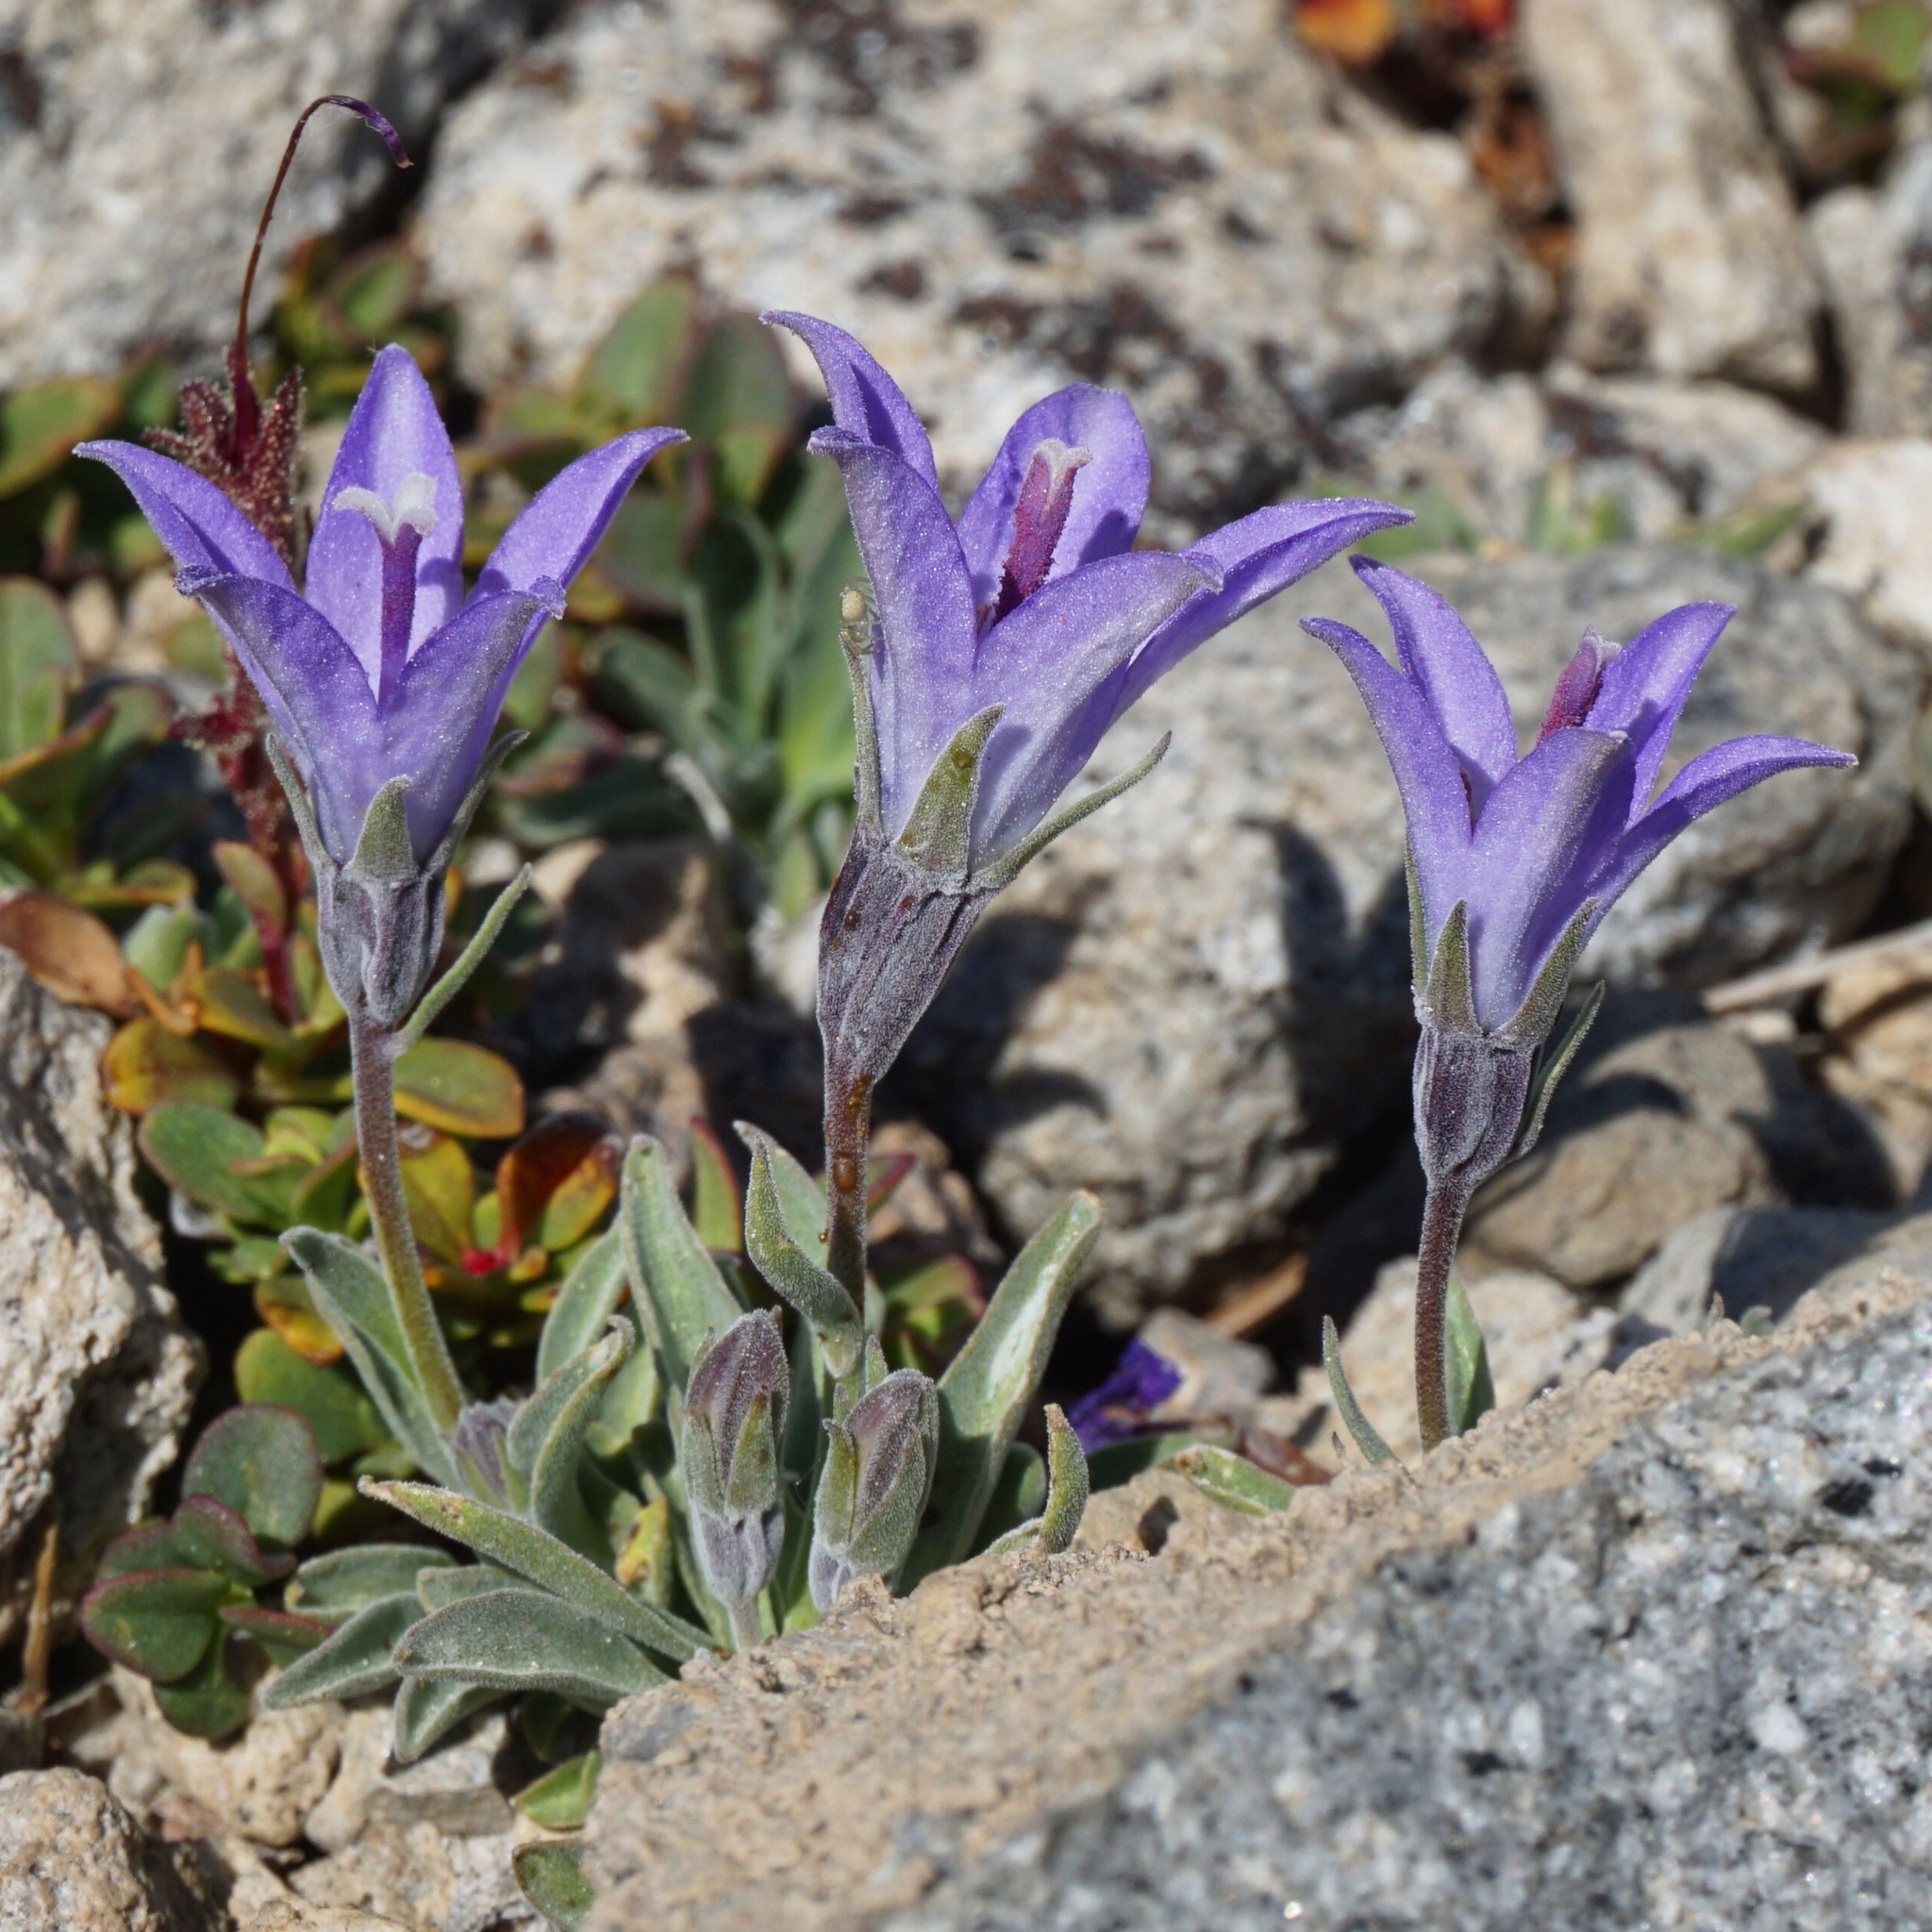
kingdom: Plantae
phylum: Tracheophyta
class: Magnoliopsida
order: Asterales
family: Campanulaceae
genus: Campanula
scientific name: Campanula scabrella
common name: Downy alpine bellflower
